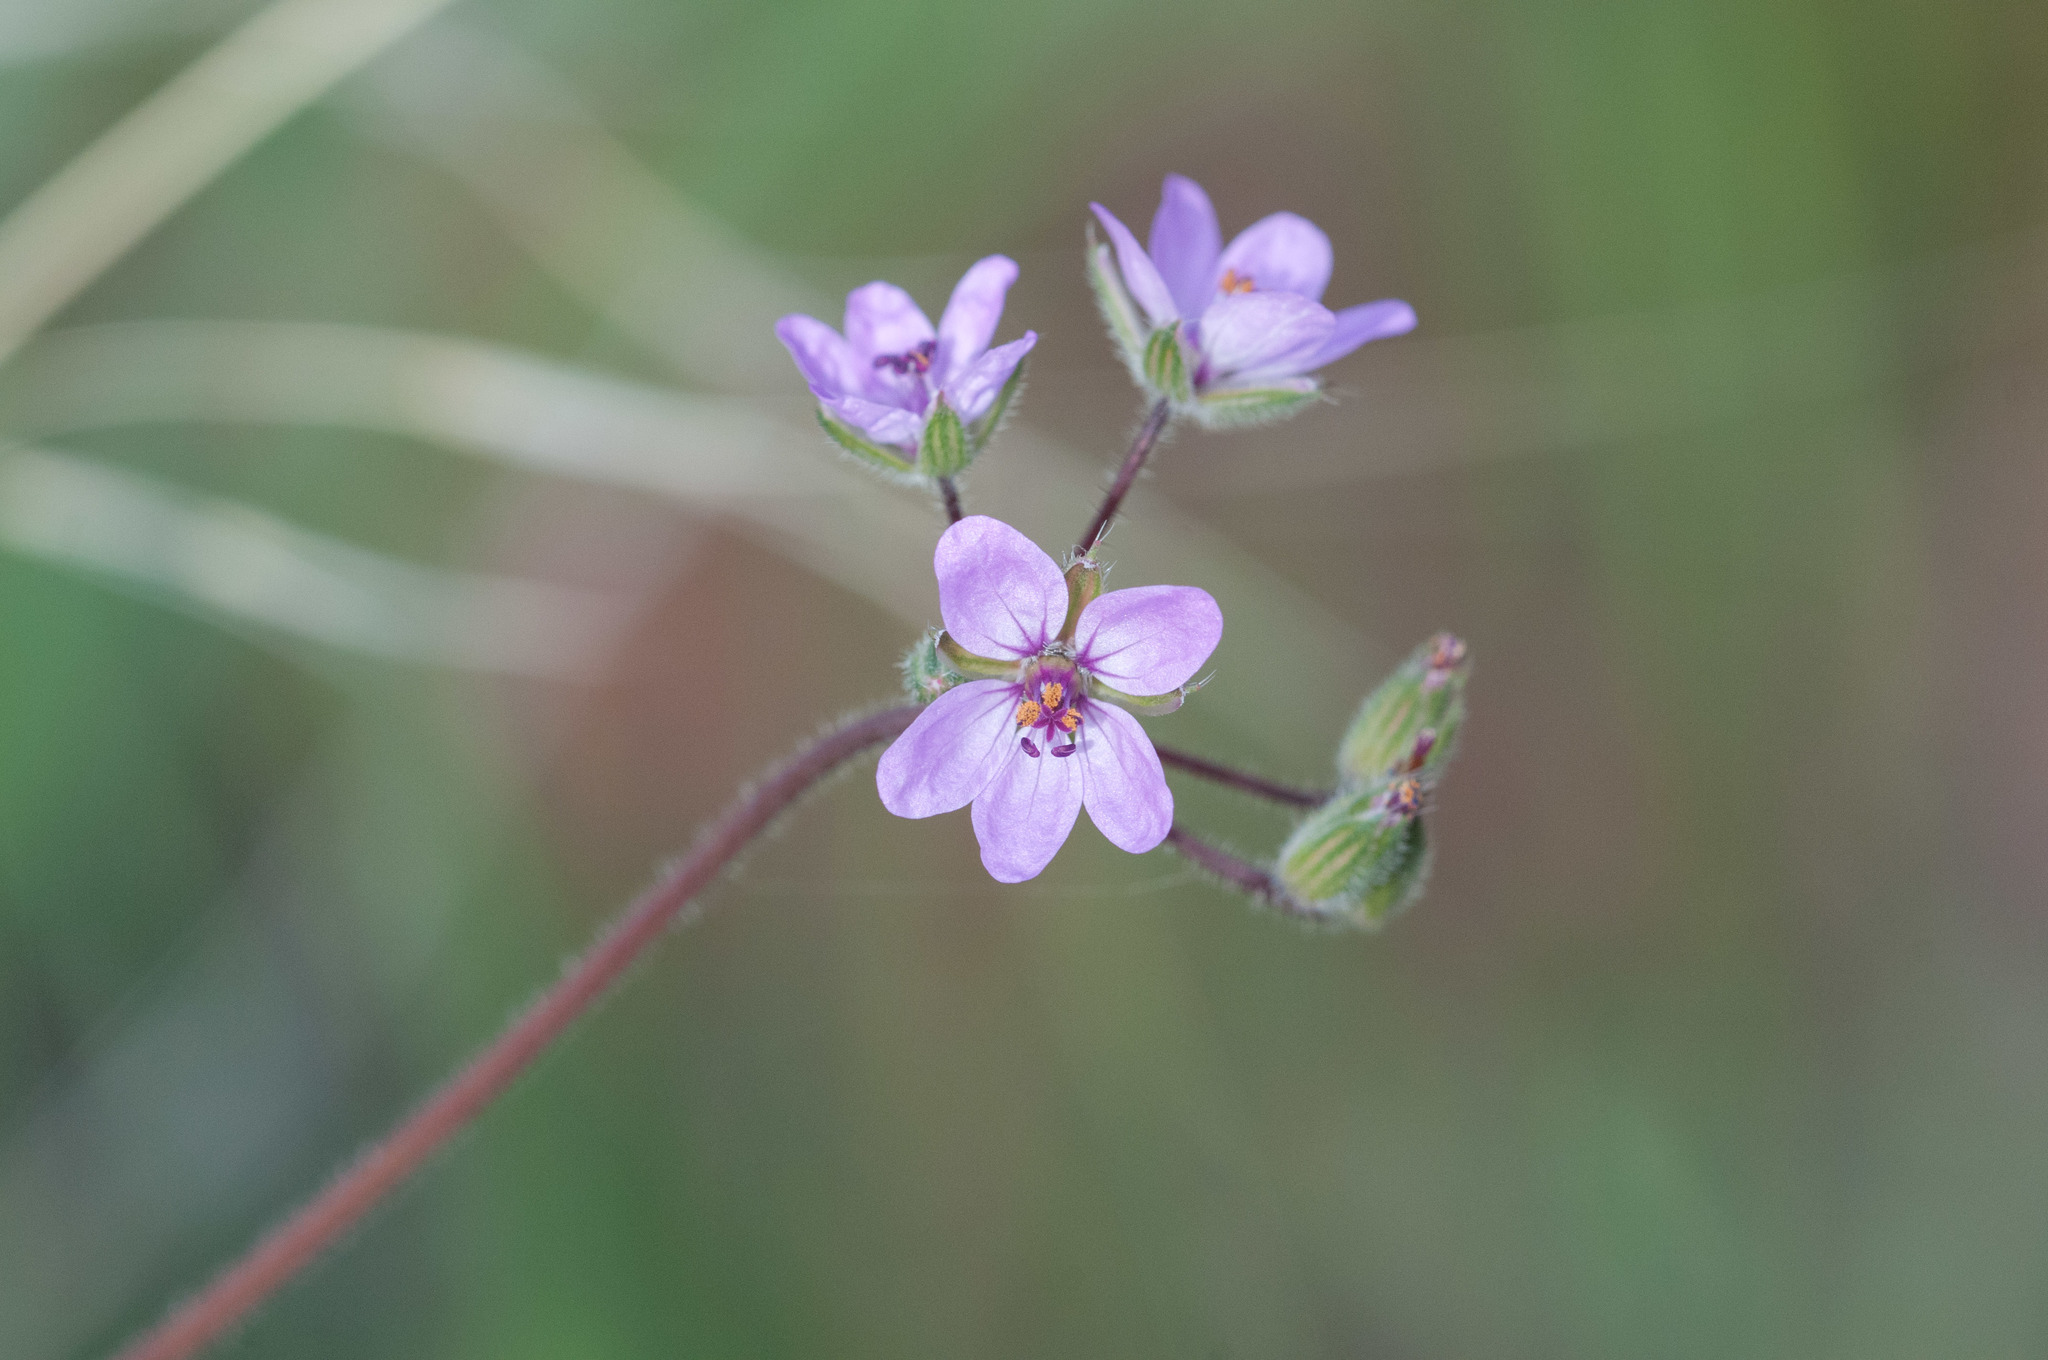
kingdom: Plantae
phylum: Tracheophyta
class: Magnoliopsida
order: Geraniales
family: Geraniaceae
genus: Erodium
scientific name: Erodium cicutarium
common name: Common stork's-bill
